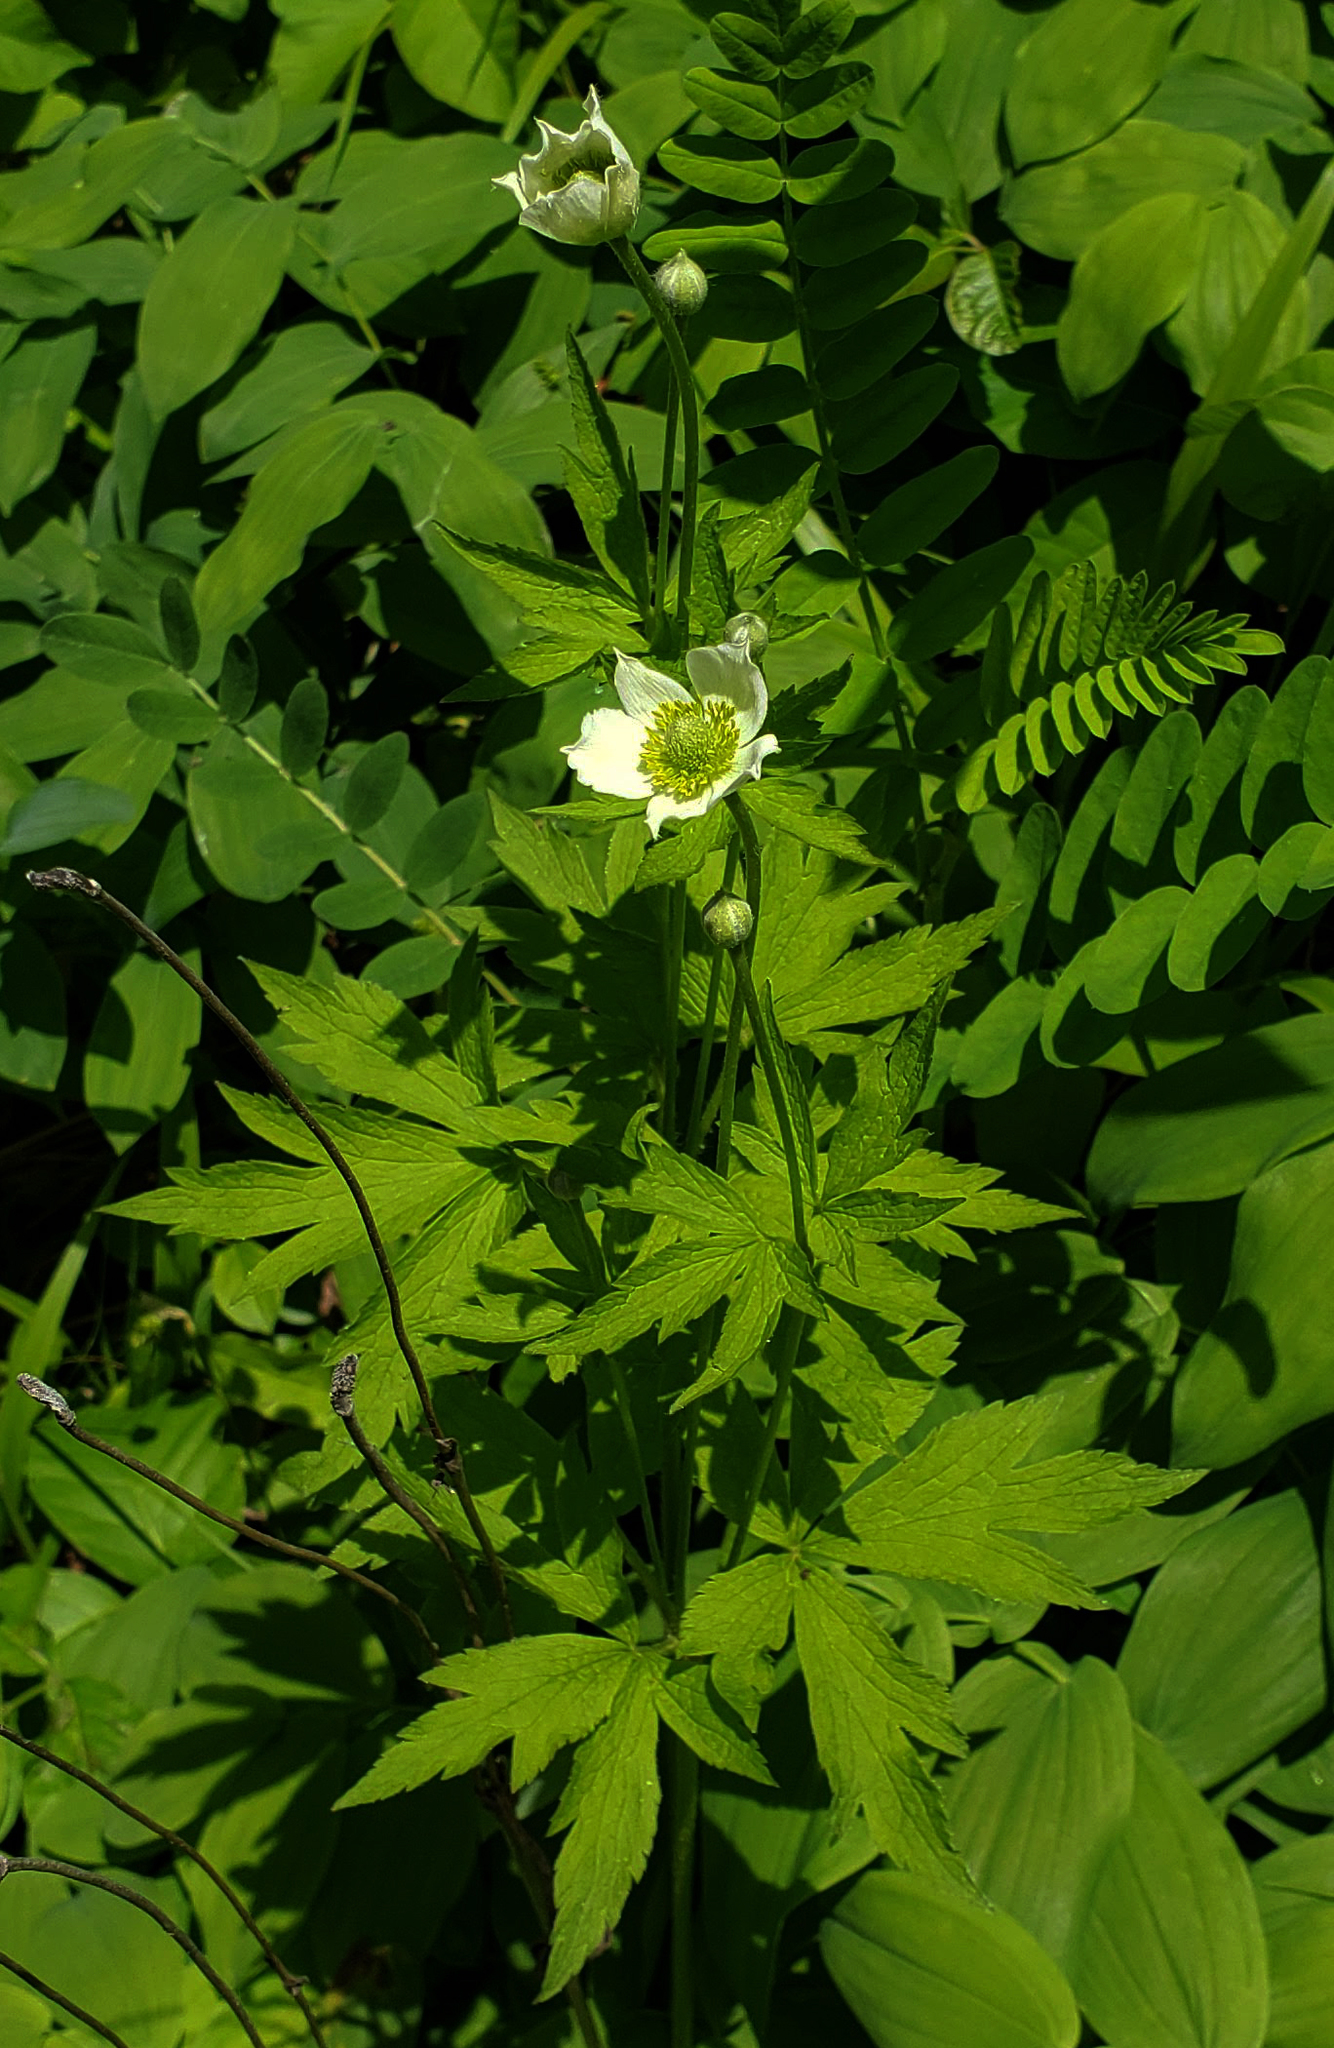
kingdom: Plantae
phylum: Tracheophyta
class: Magnoliopsida
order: Ranunculales
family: Ranunculaceae
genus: Anemone
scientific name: Anemone virginiana
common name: Tall anemone
